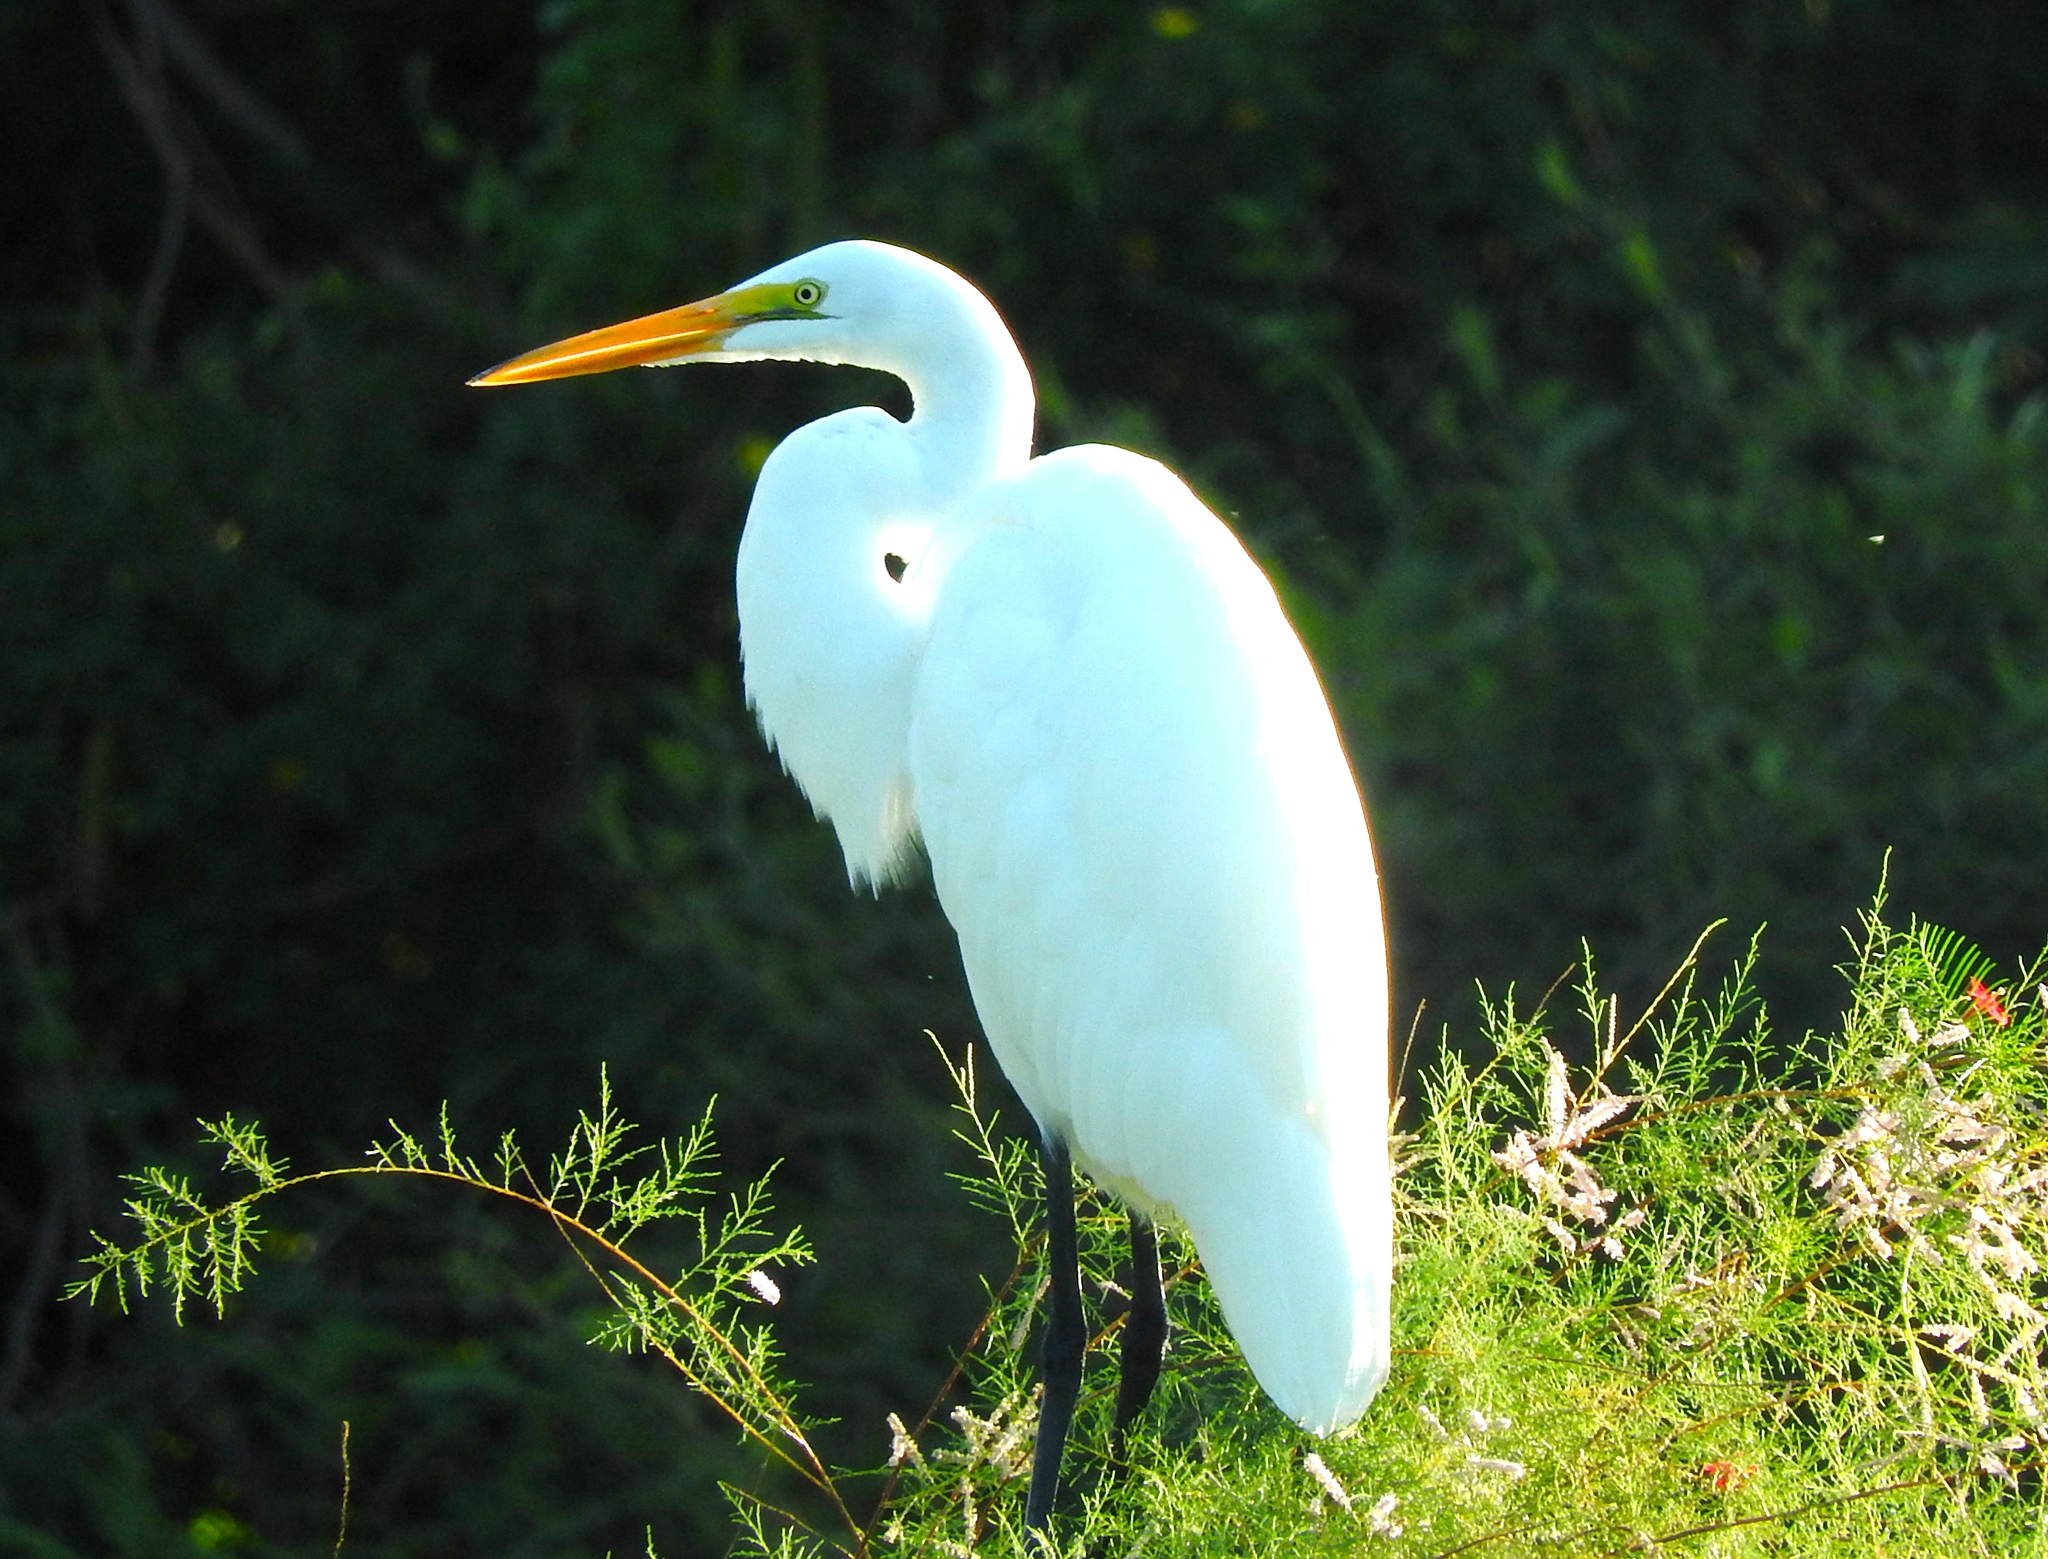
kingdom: Animalia
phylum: Chordata
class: Aves
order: Pelecaniformes
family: Ardeidae
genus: Ardea
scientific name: Ardea alba
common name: Great egret
